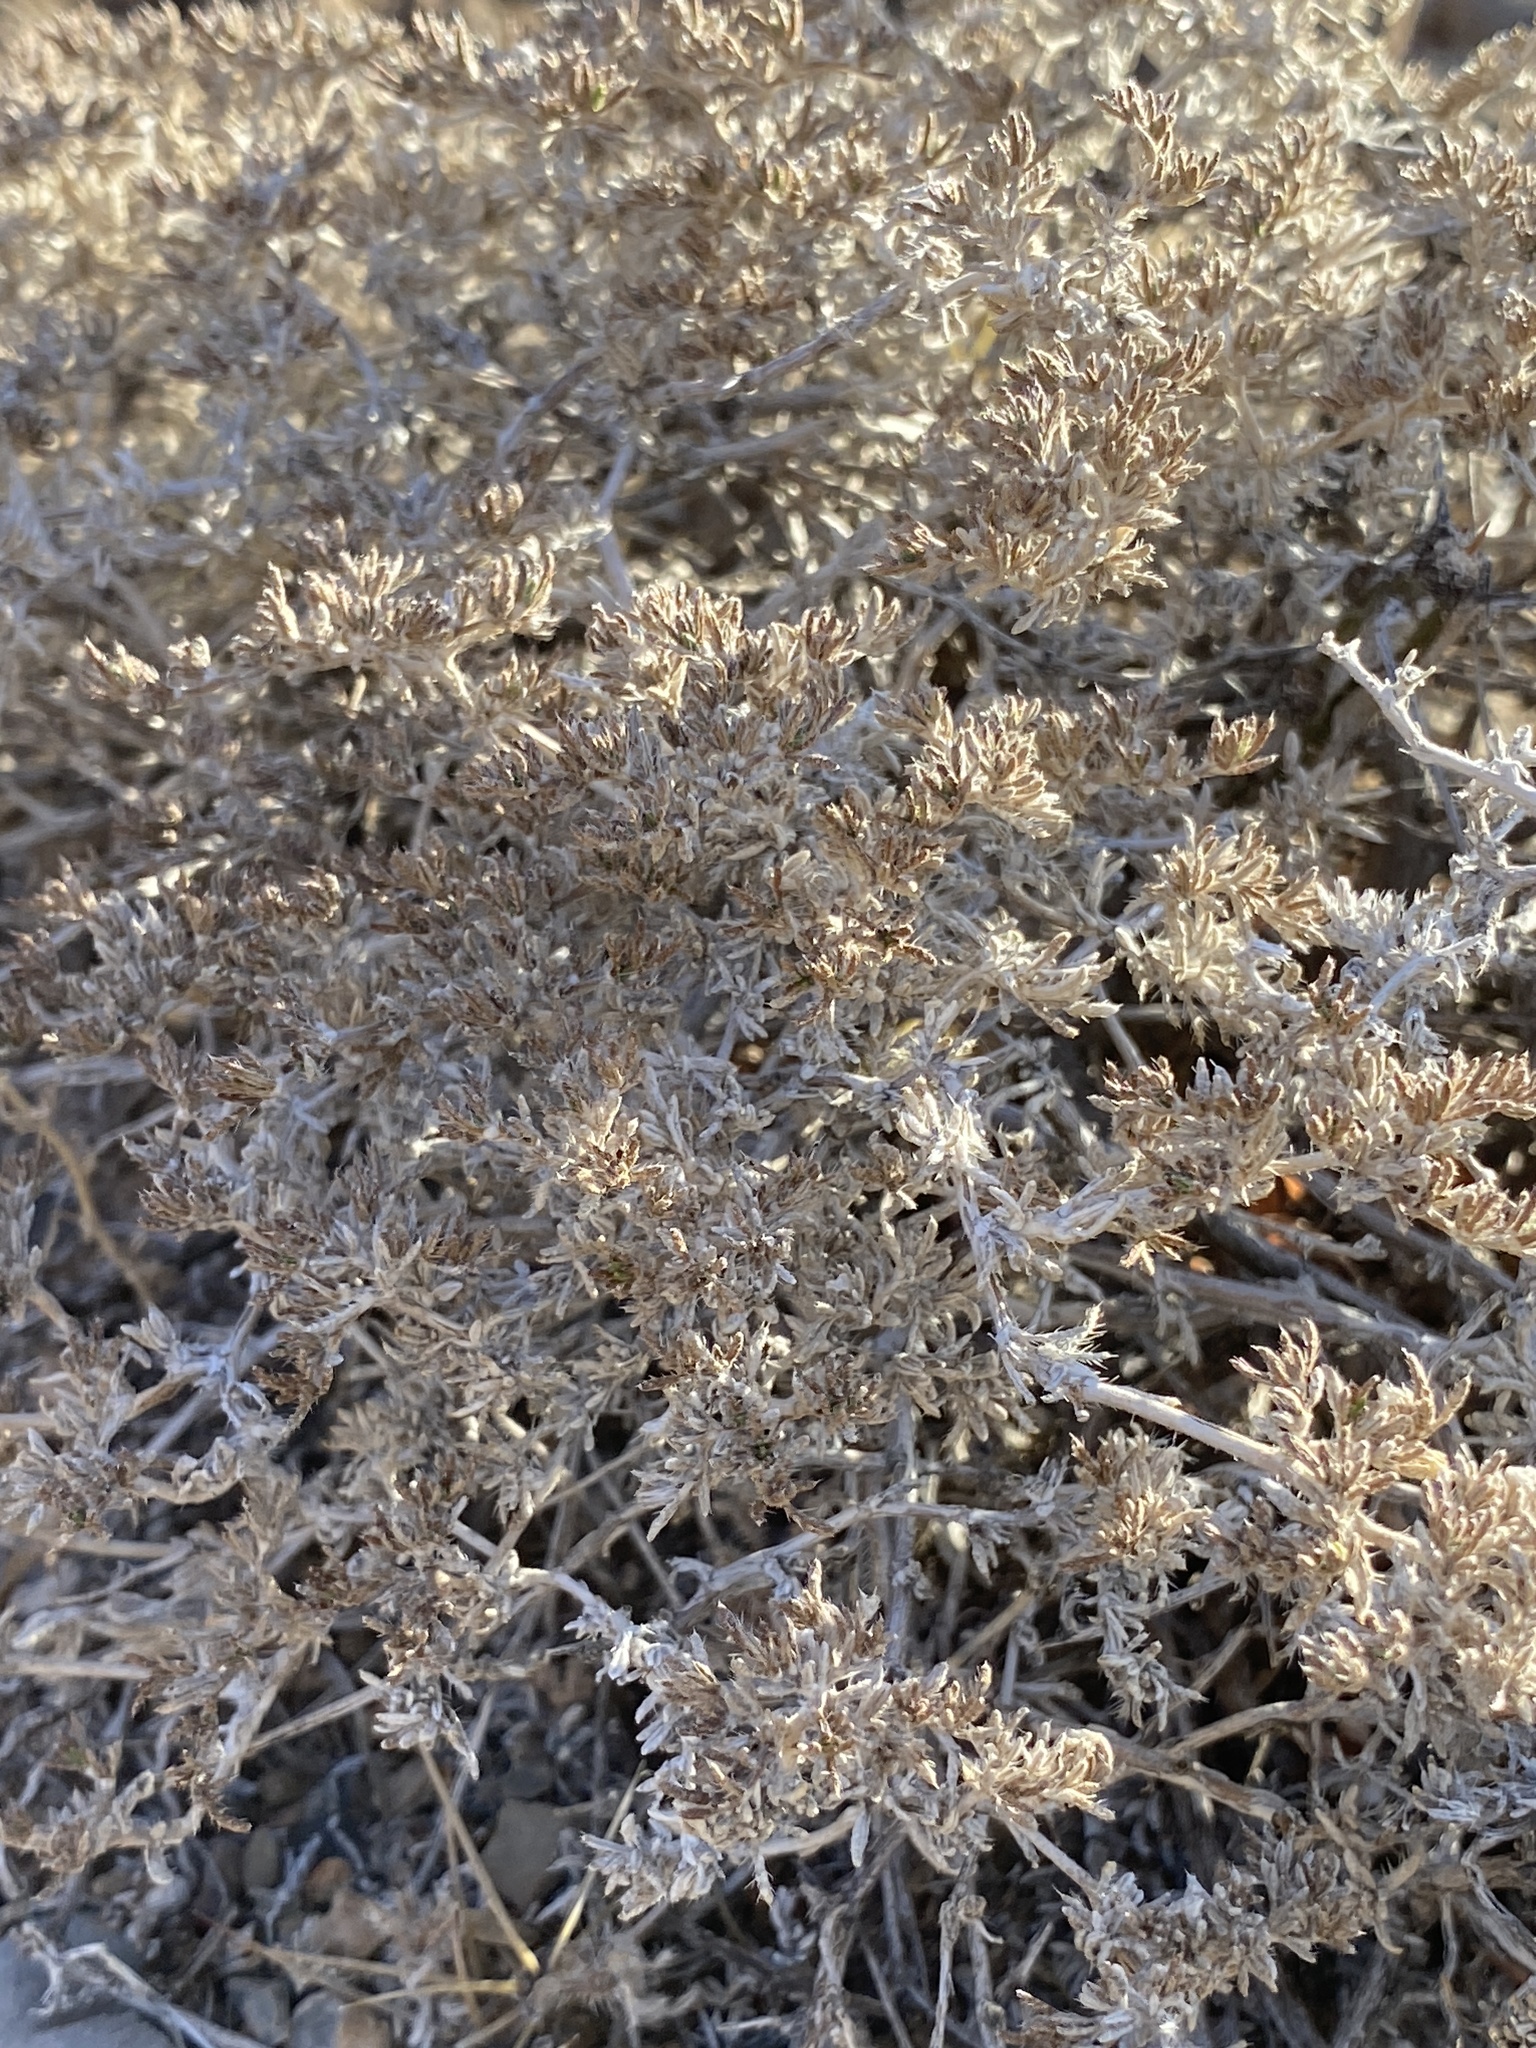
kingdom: Plantae
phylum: Tracheophyta
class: Magnoliopsida
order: Boraginales
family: Ehretiaceae
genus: Tiquilia
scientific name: Tiquilia greggii
